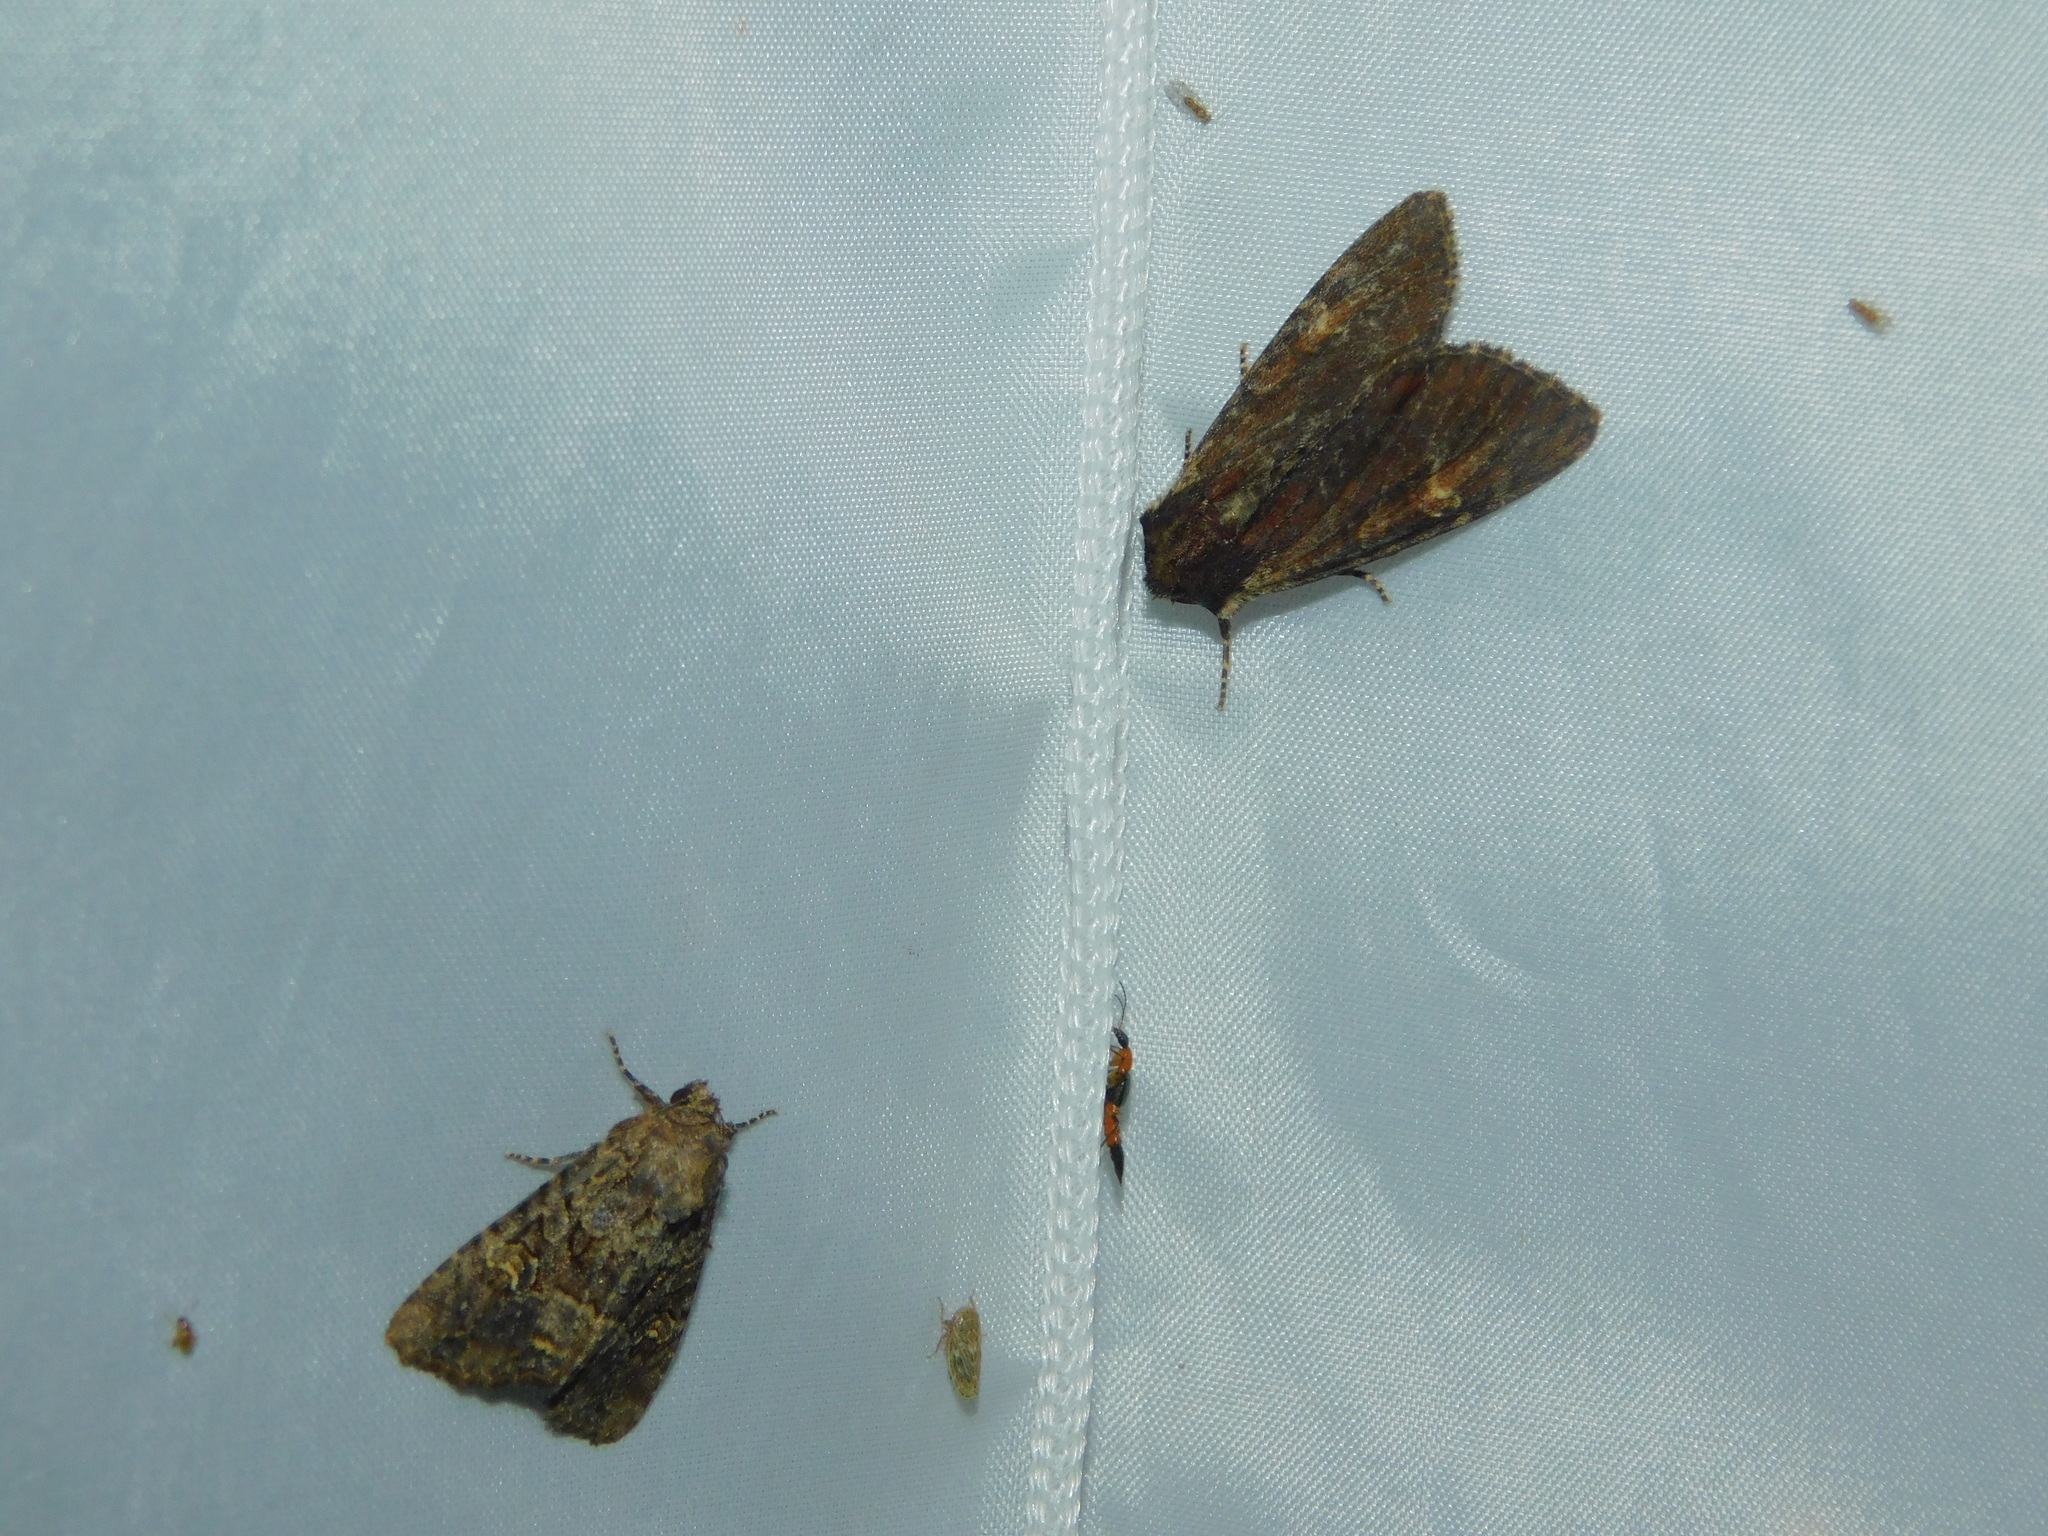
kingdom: Animalia
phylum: Arthropoda
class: Insecta
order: Lepidoptera
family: Noctuidae
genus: Mesapamea
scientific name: Mesapamea
